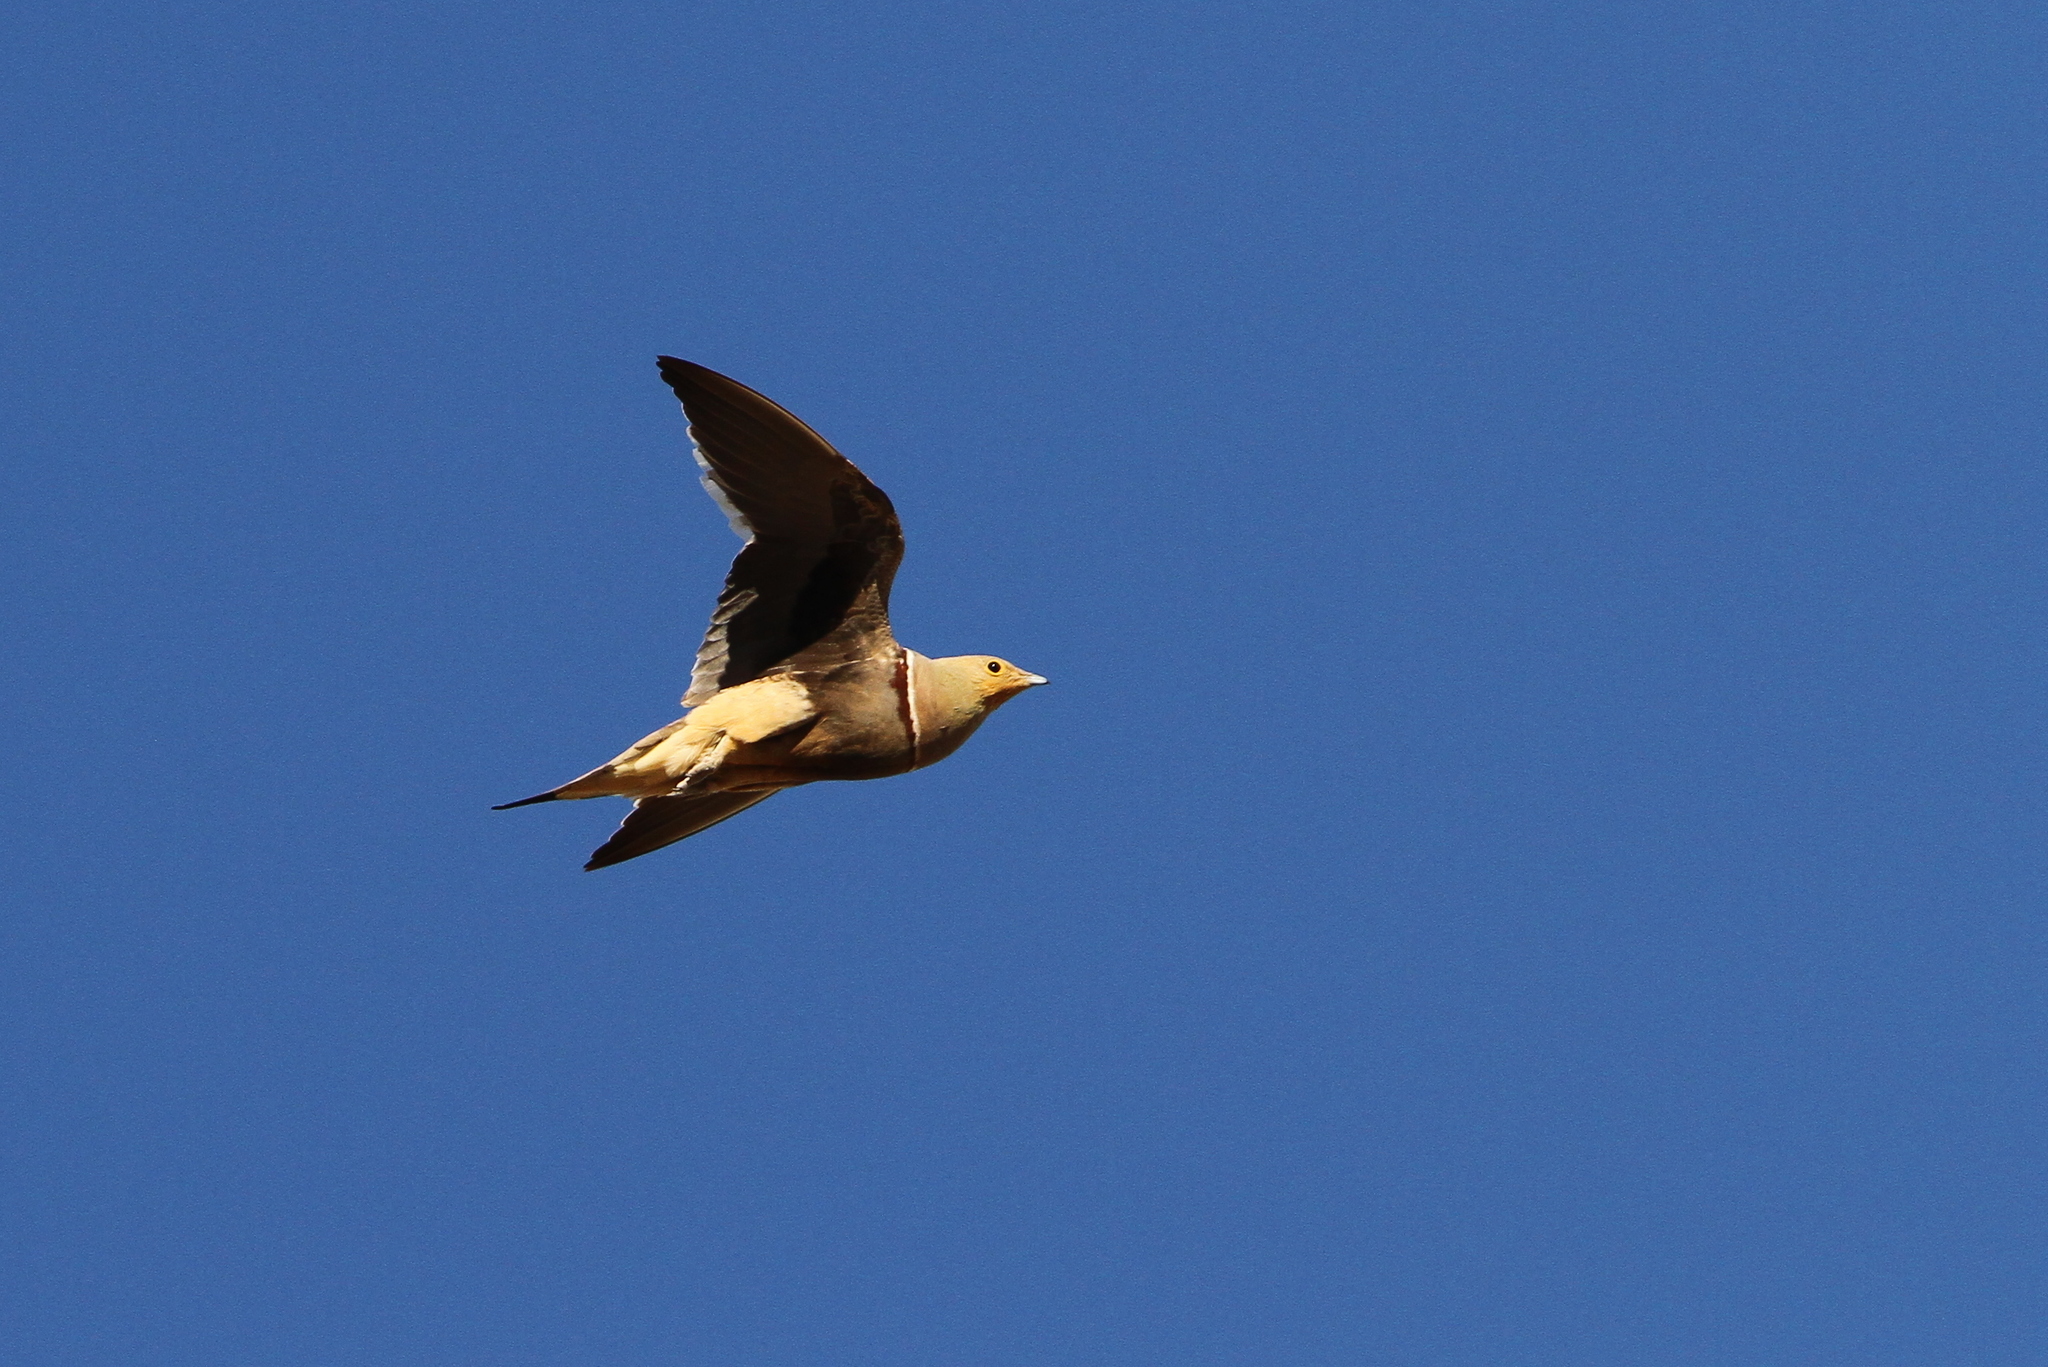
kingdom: Animalia
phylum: Chordata
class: Aves
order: Pteroclidiformes
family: Pteroclididae
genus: Pterocles
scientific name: Pterocles namaqua
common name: Namaqua sandgrouse
